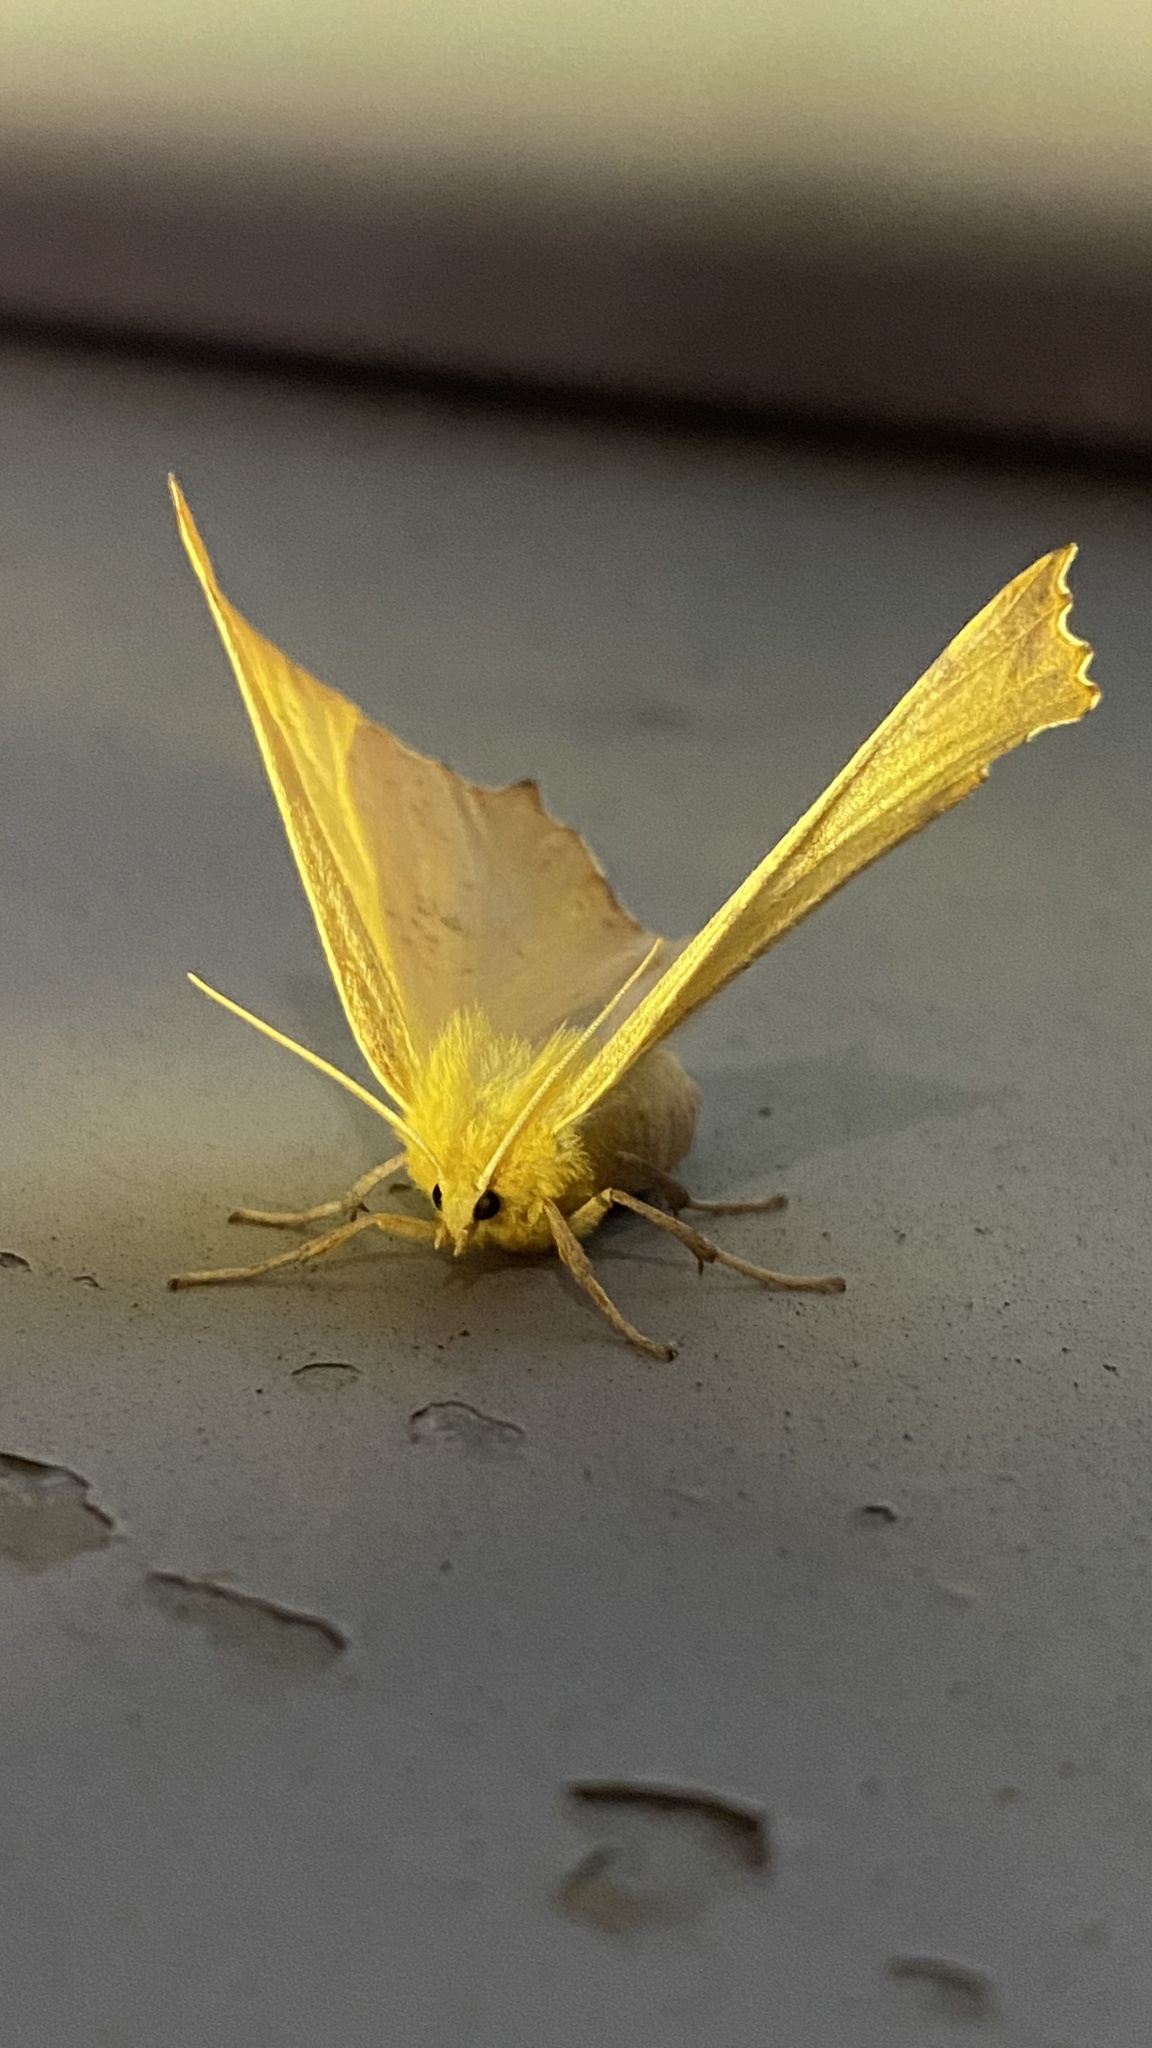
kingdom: Animalia
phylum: Arthropoda
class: Insecta
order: Lepidoptera
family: Geometridae
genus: Ennomos
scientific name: Ennomos autumnaria
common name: Large thorn
